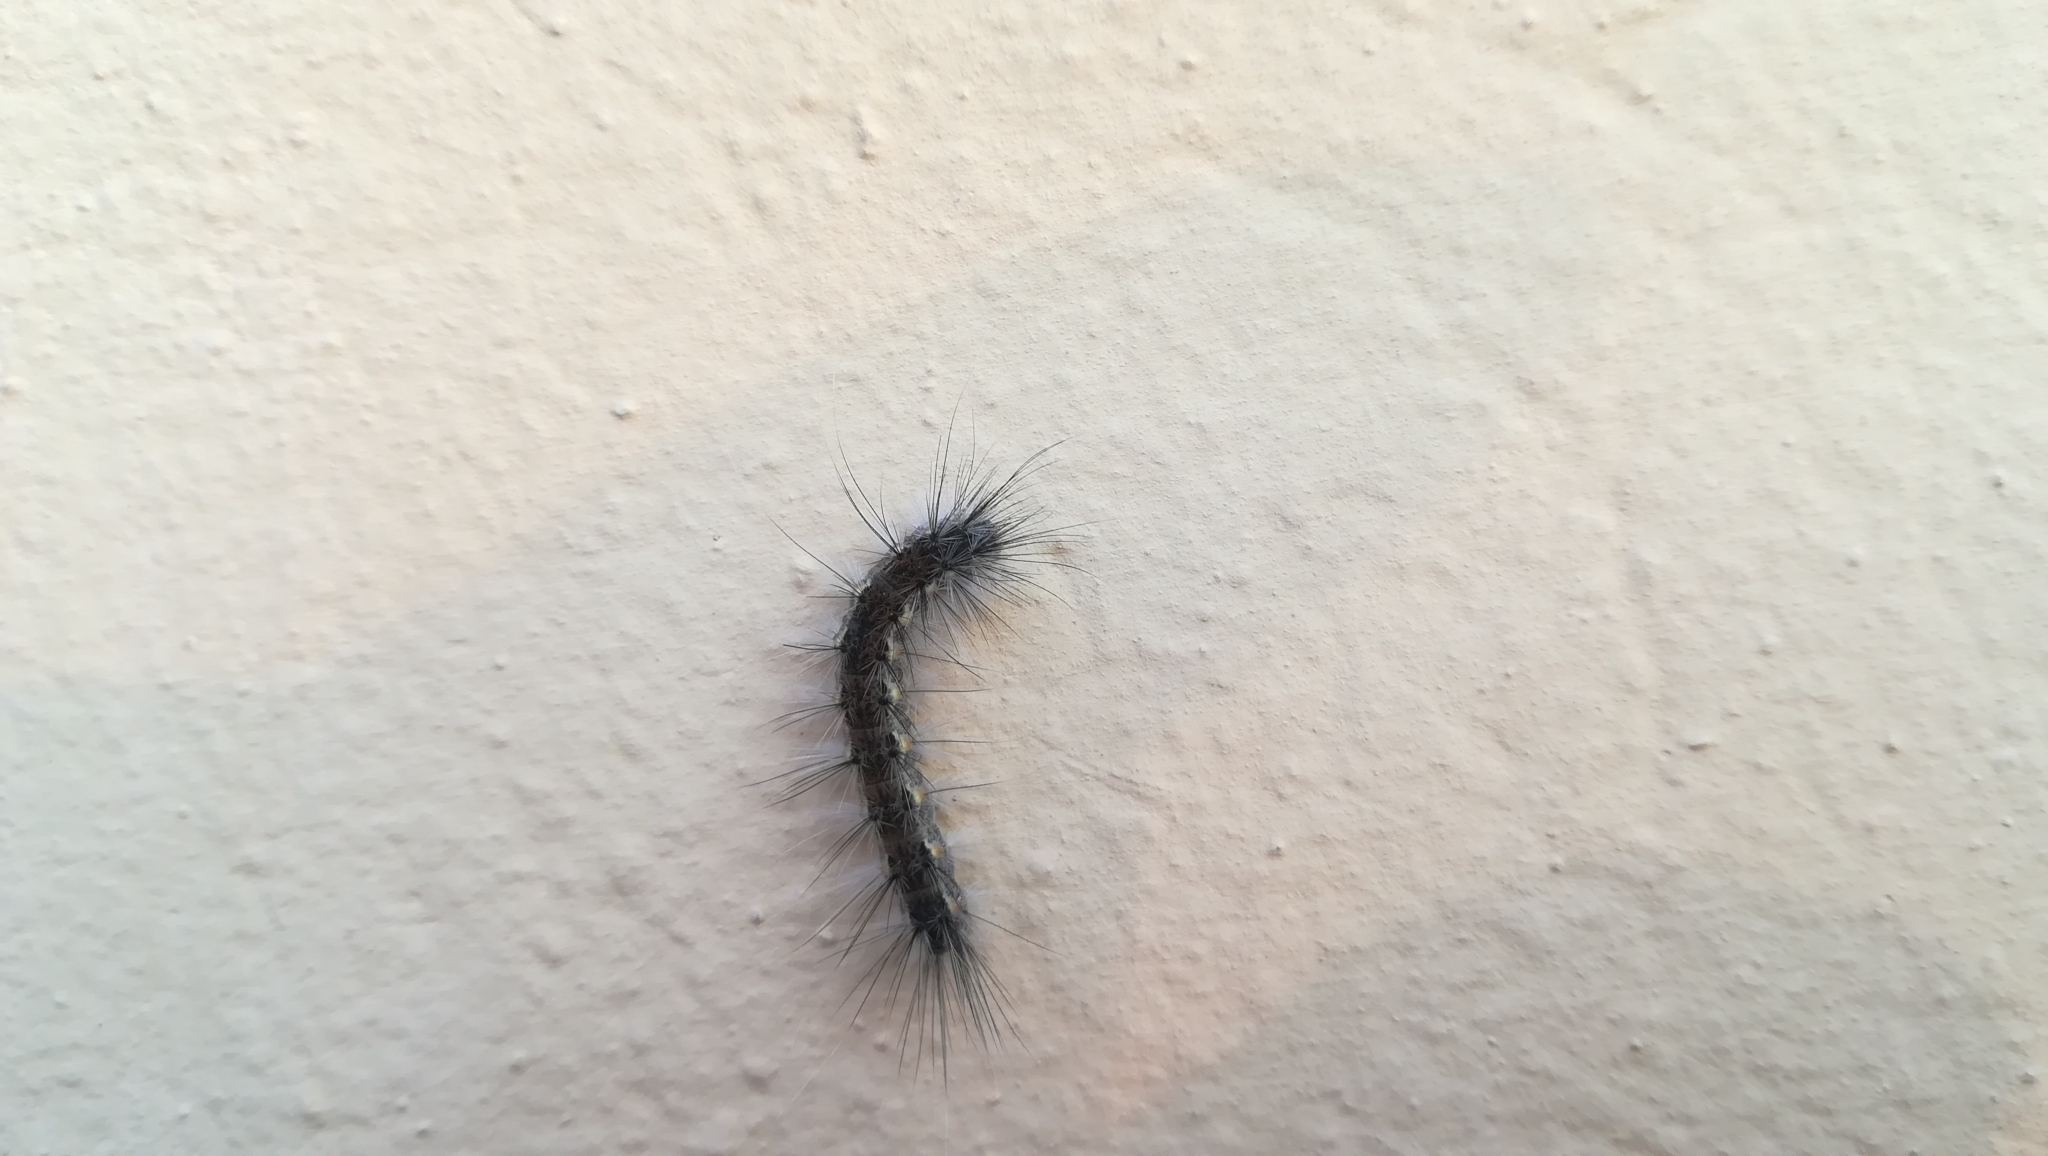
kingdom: Animalia
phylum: Arthropoda
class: Insecta
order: Lepidoptera
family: Erebidae
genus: Hyphantria
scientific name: Hyphantria cunea
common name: American white moth
